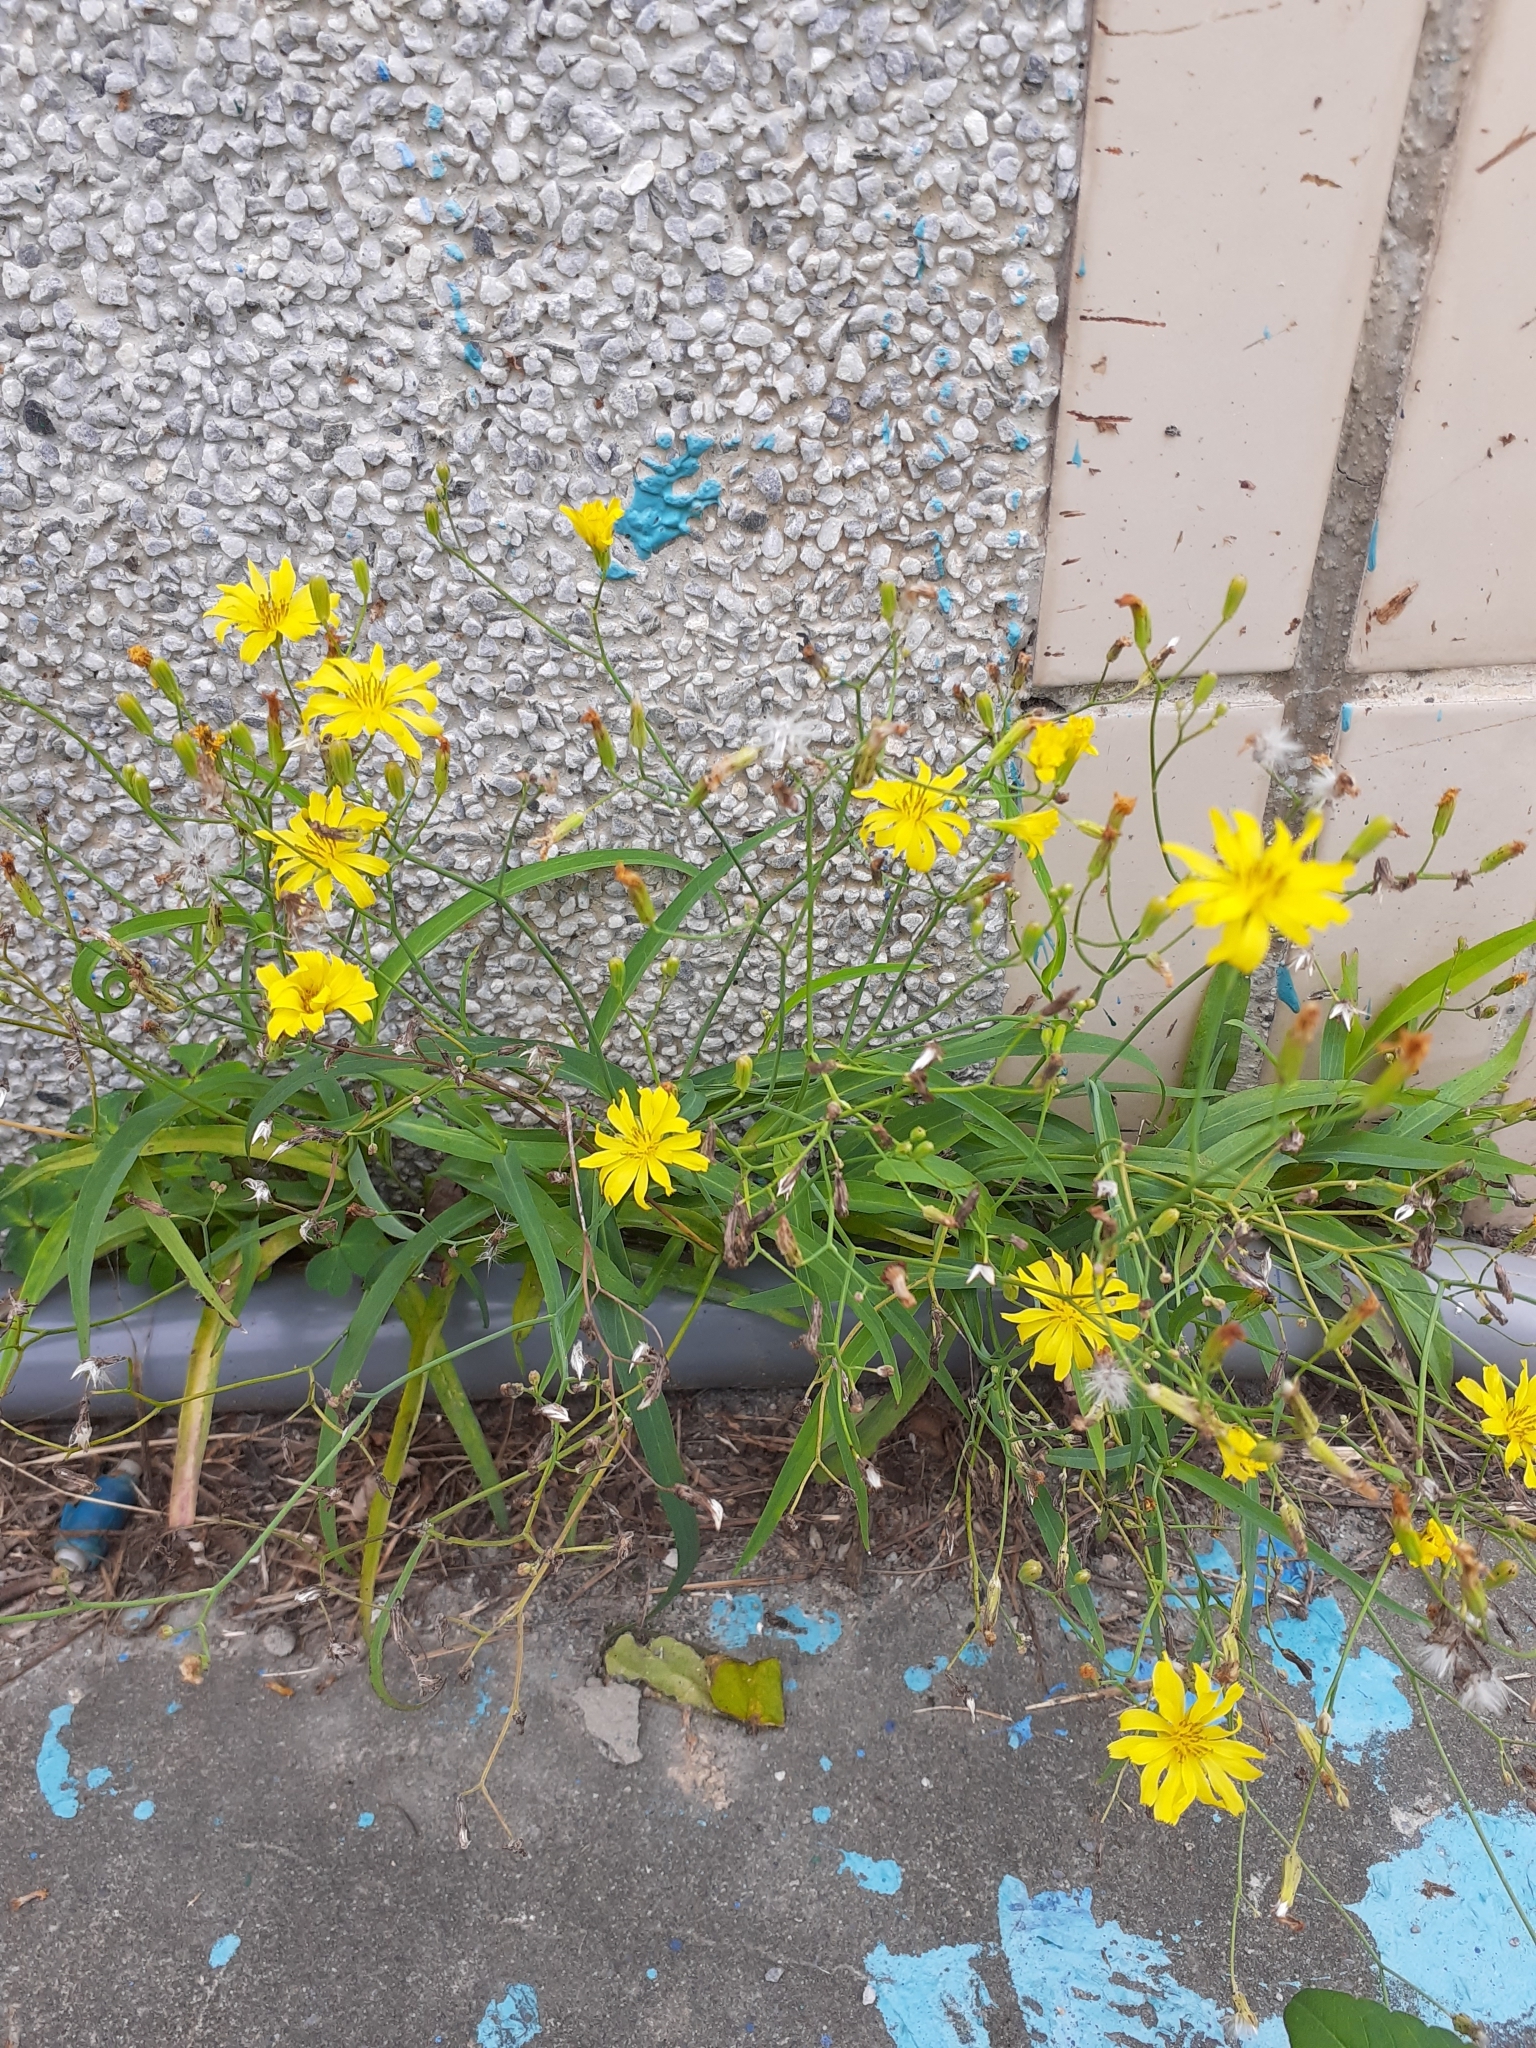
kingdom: Plantae
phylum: Tracheophyta
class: Magnoliopsida
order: Asterales
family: Asteraceae
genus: Ixeris
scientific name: Ixeris chinensis
